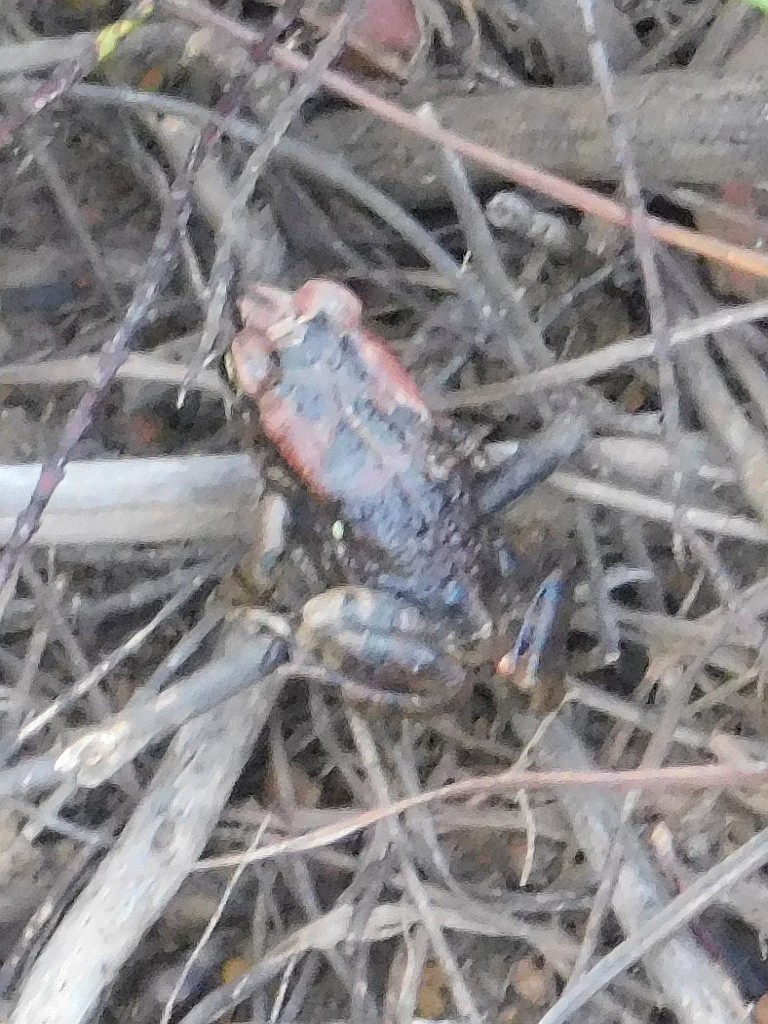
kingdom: Animalia
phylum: Chordata
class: Amphibia
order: Anura
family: Bufonidae
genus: Sclerophrys
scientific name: Sclerophrys capensis
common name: Ranger’s toad
